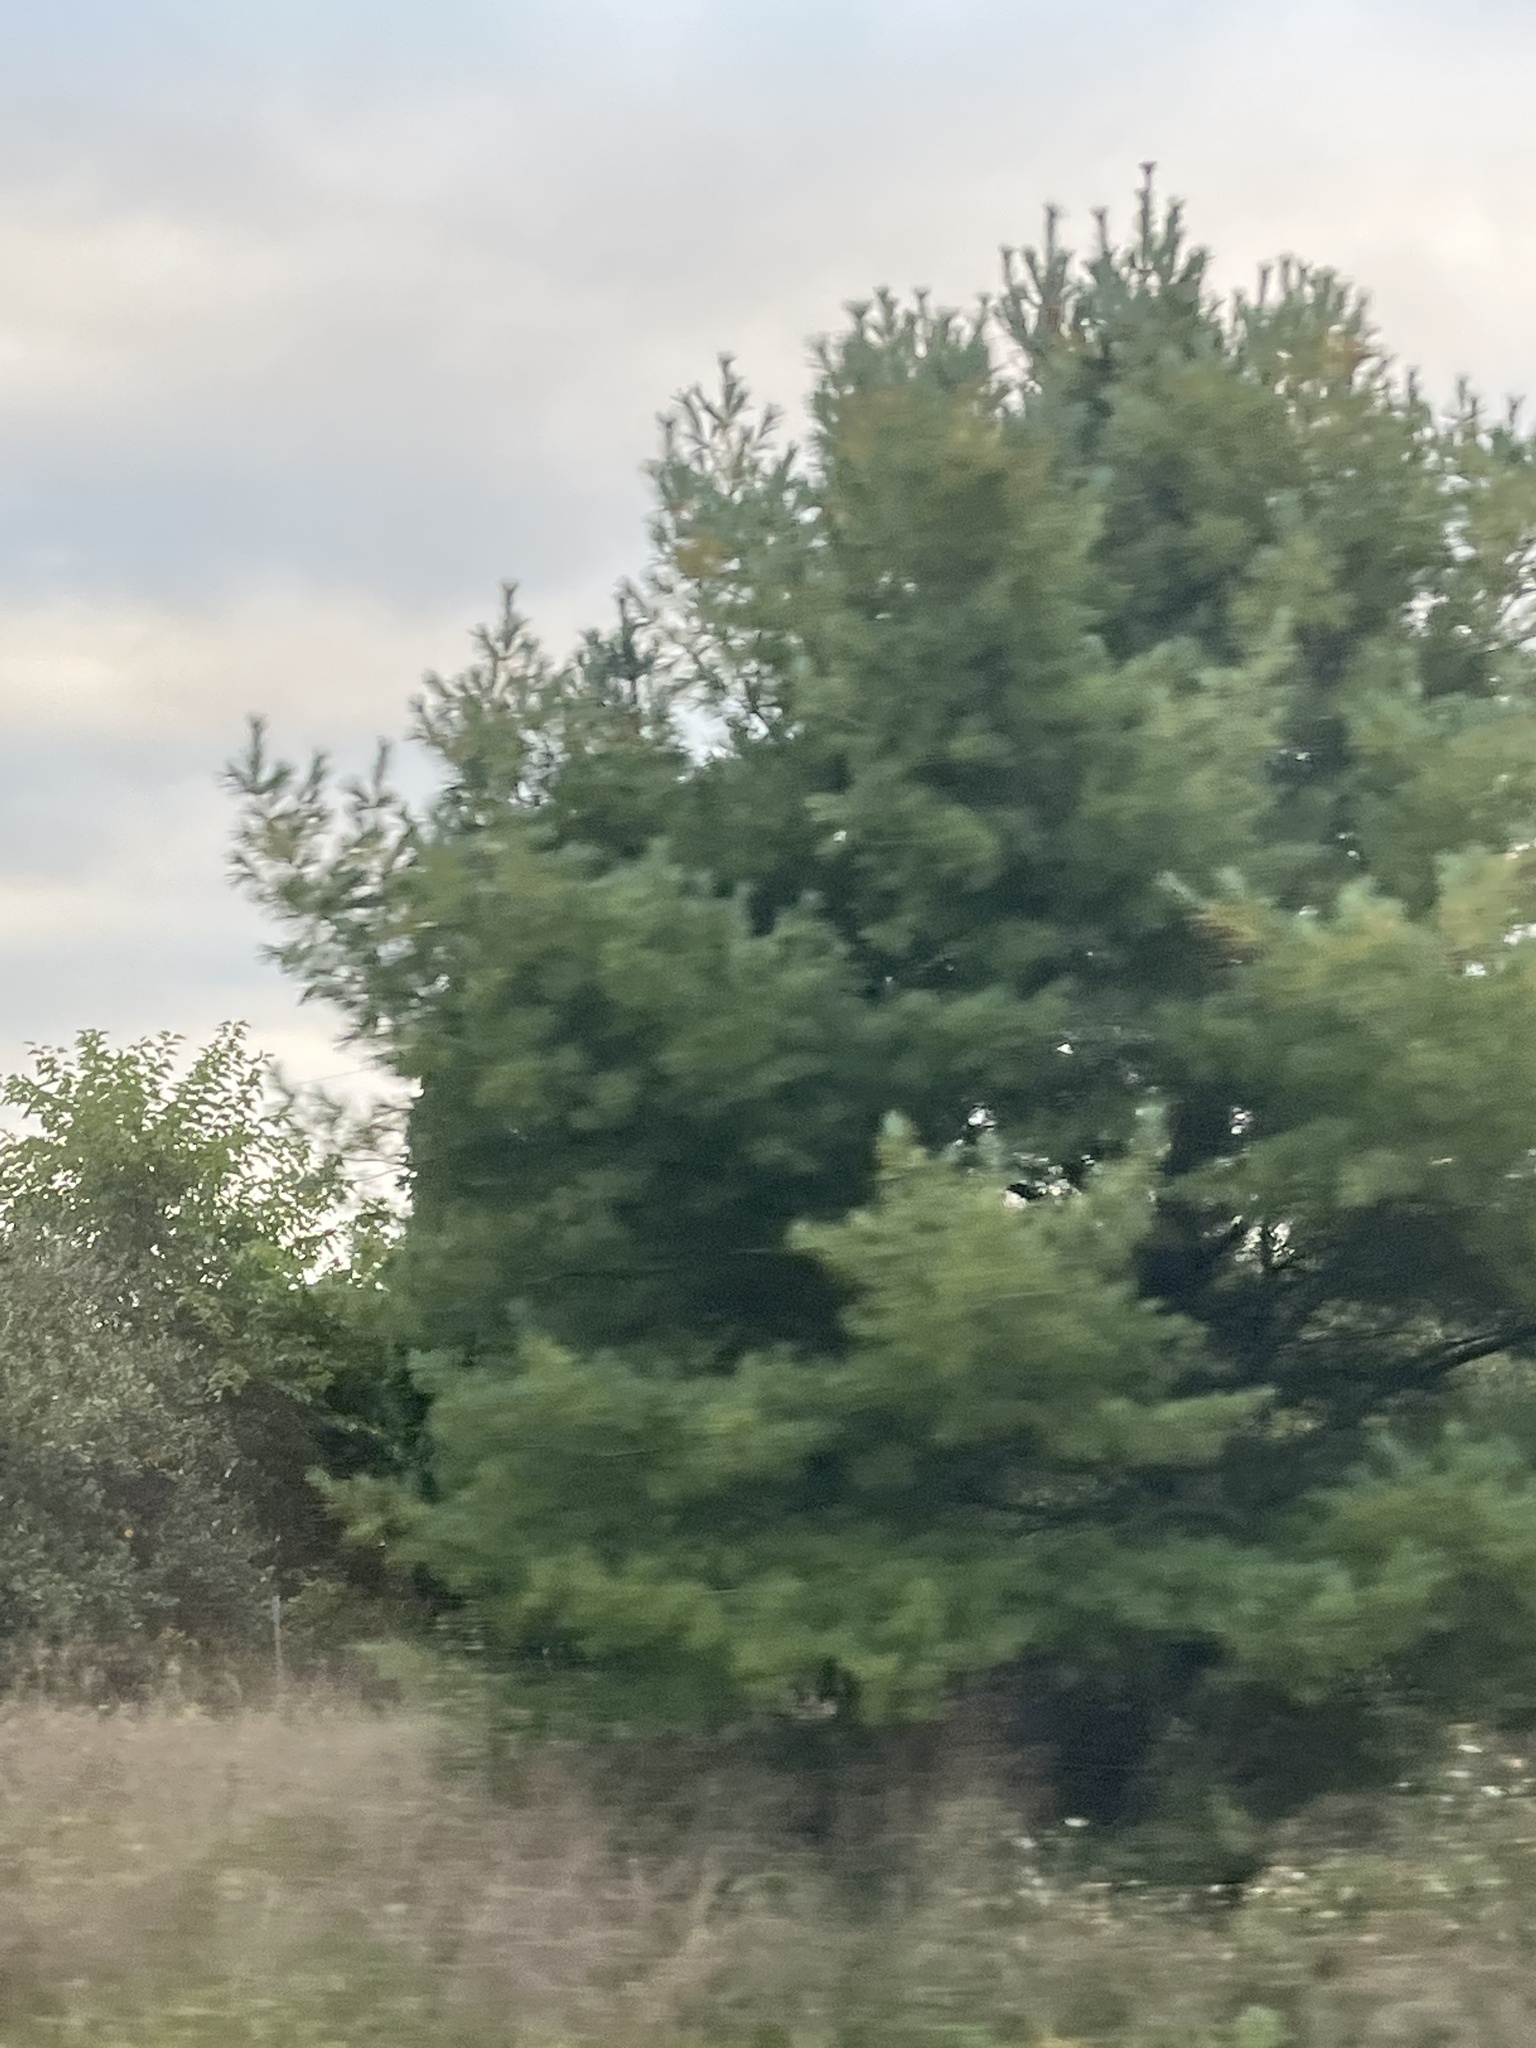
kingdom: Plantae
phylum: Tracheophyta
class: Pinopsida
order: Pinales
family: Pinaceae
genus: Pinus
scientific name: Pinus strobus
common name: Weymouth pine
